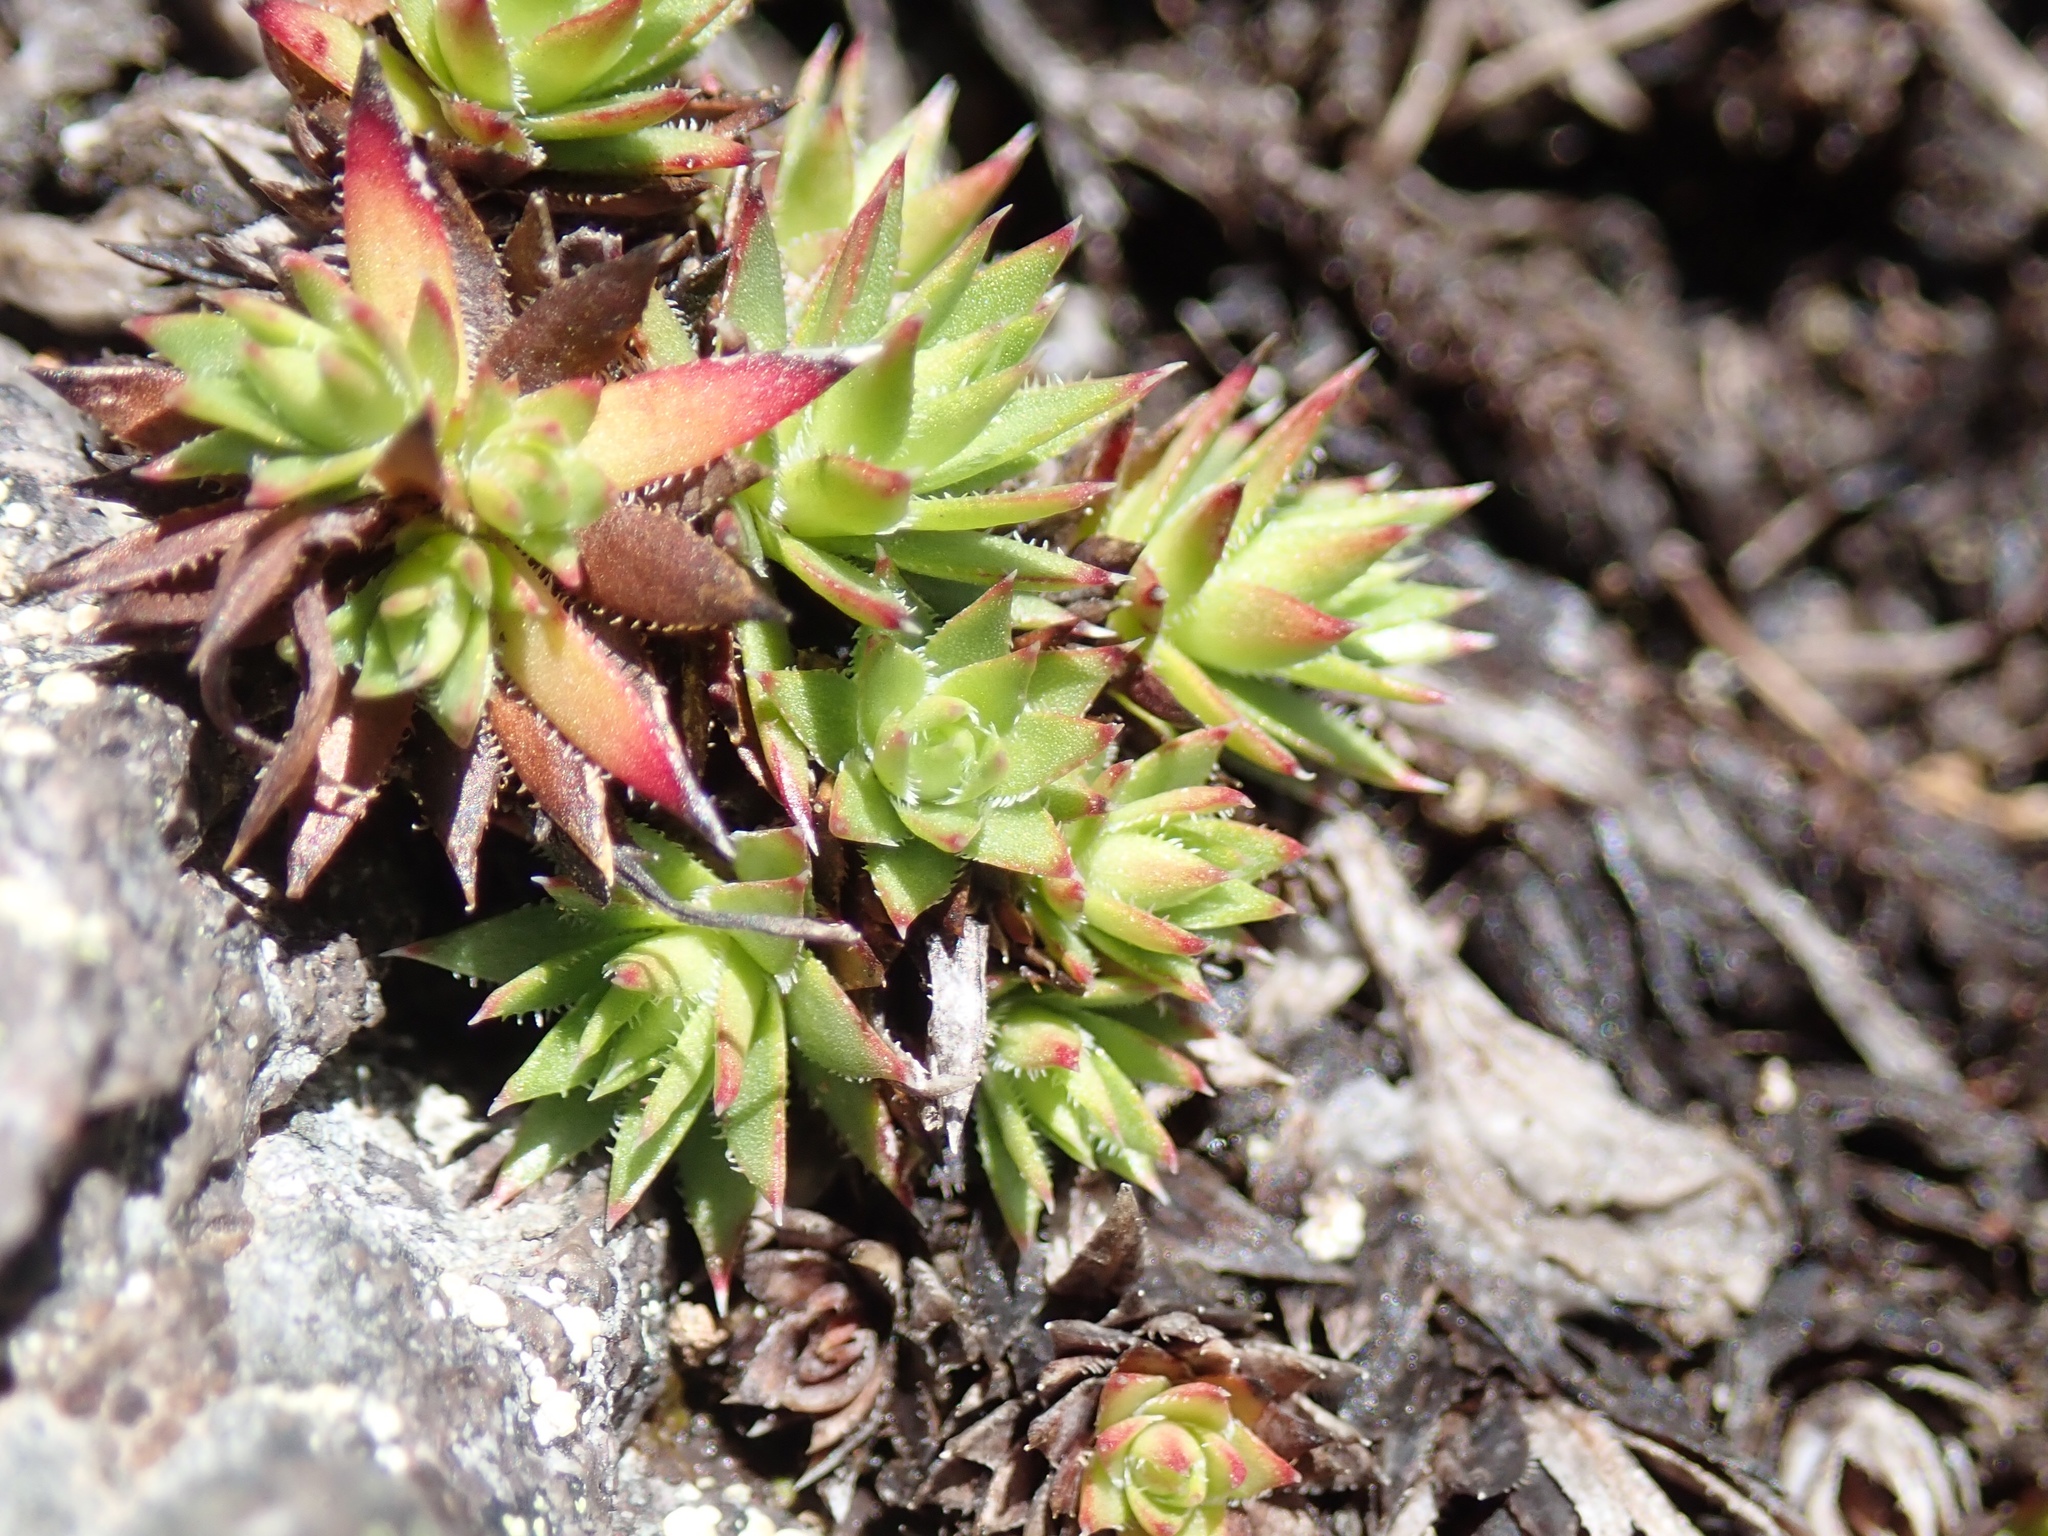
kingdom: Plantae
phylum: Tracheophyta
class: Magnoliopsida
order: Saxifragales
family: Saxifragaceae
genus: Saxifraga
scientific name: Saxifraga bronchialis
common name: Matted saxifrage
